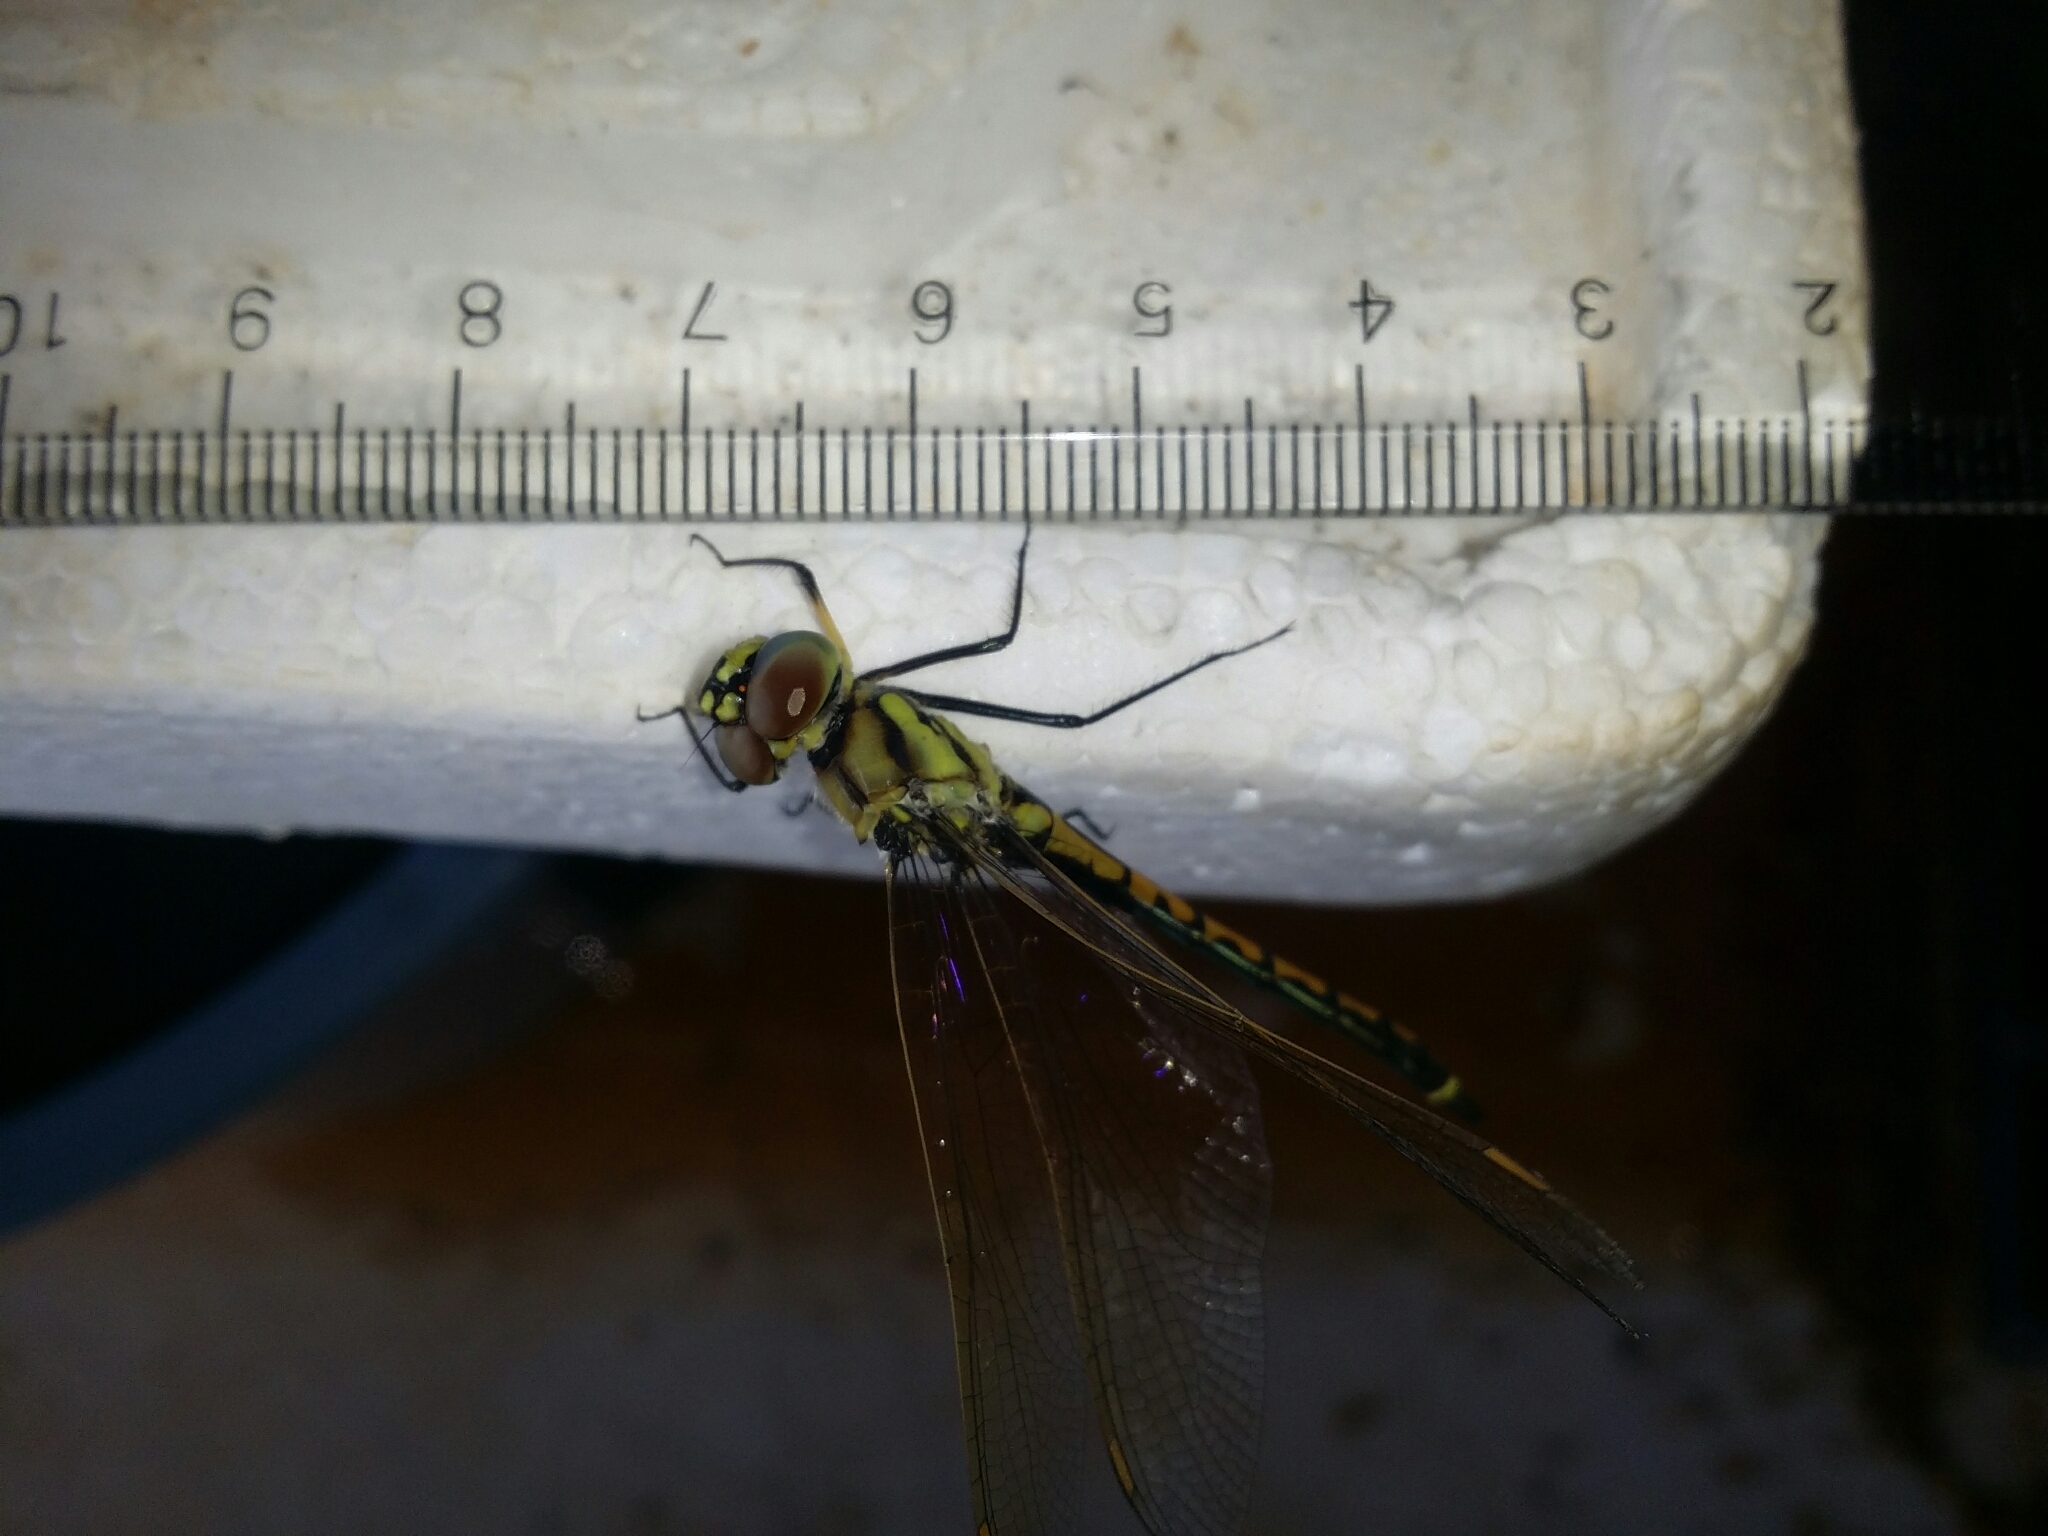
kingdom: Animalia
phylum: Arthropoda
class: Insecta
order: Odonata
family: Corduliidae
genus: Hemicordulia
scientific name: Hemicordulia tau
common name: Tau emerald
